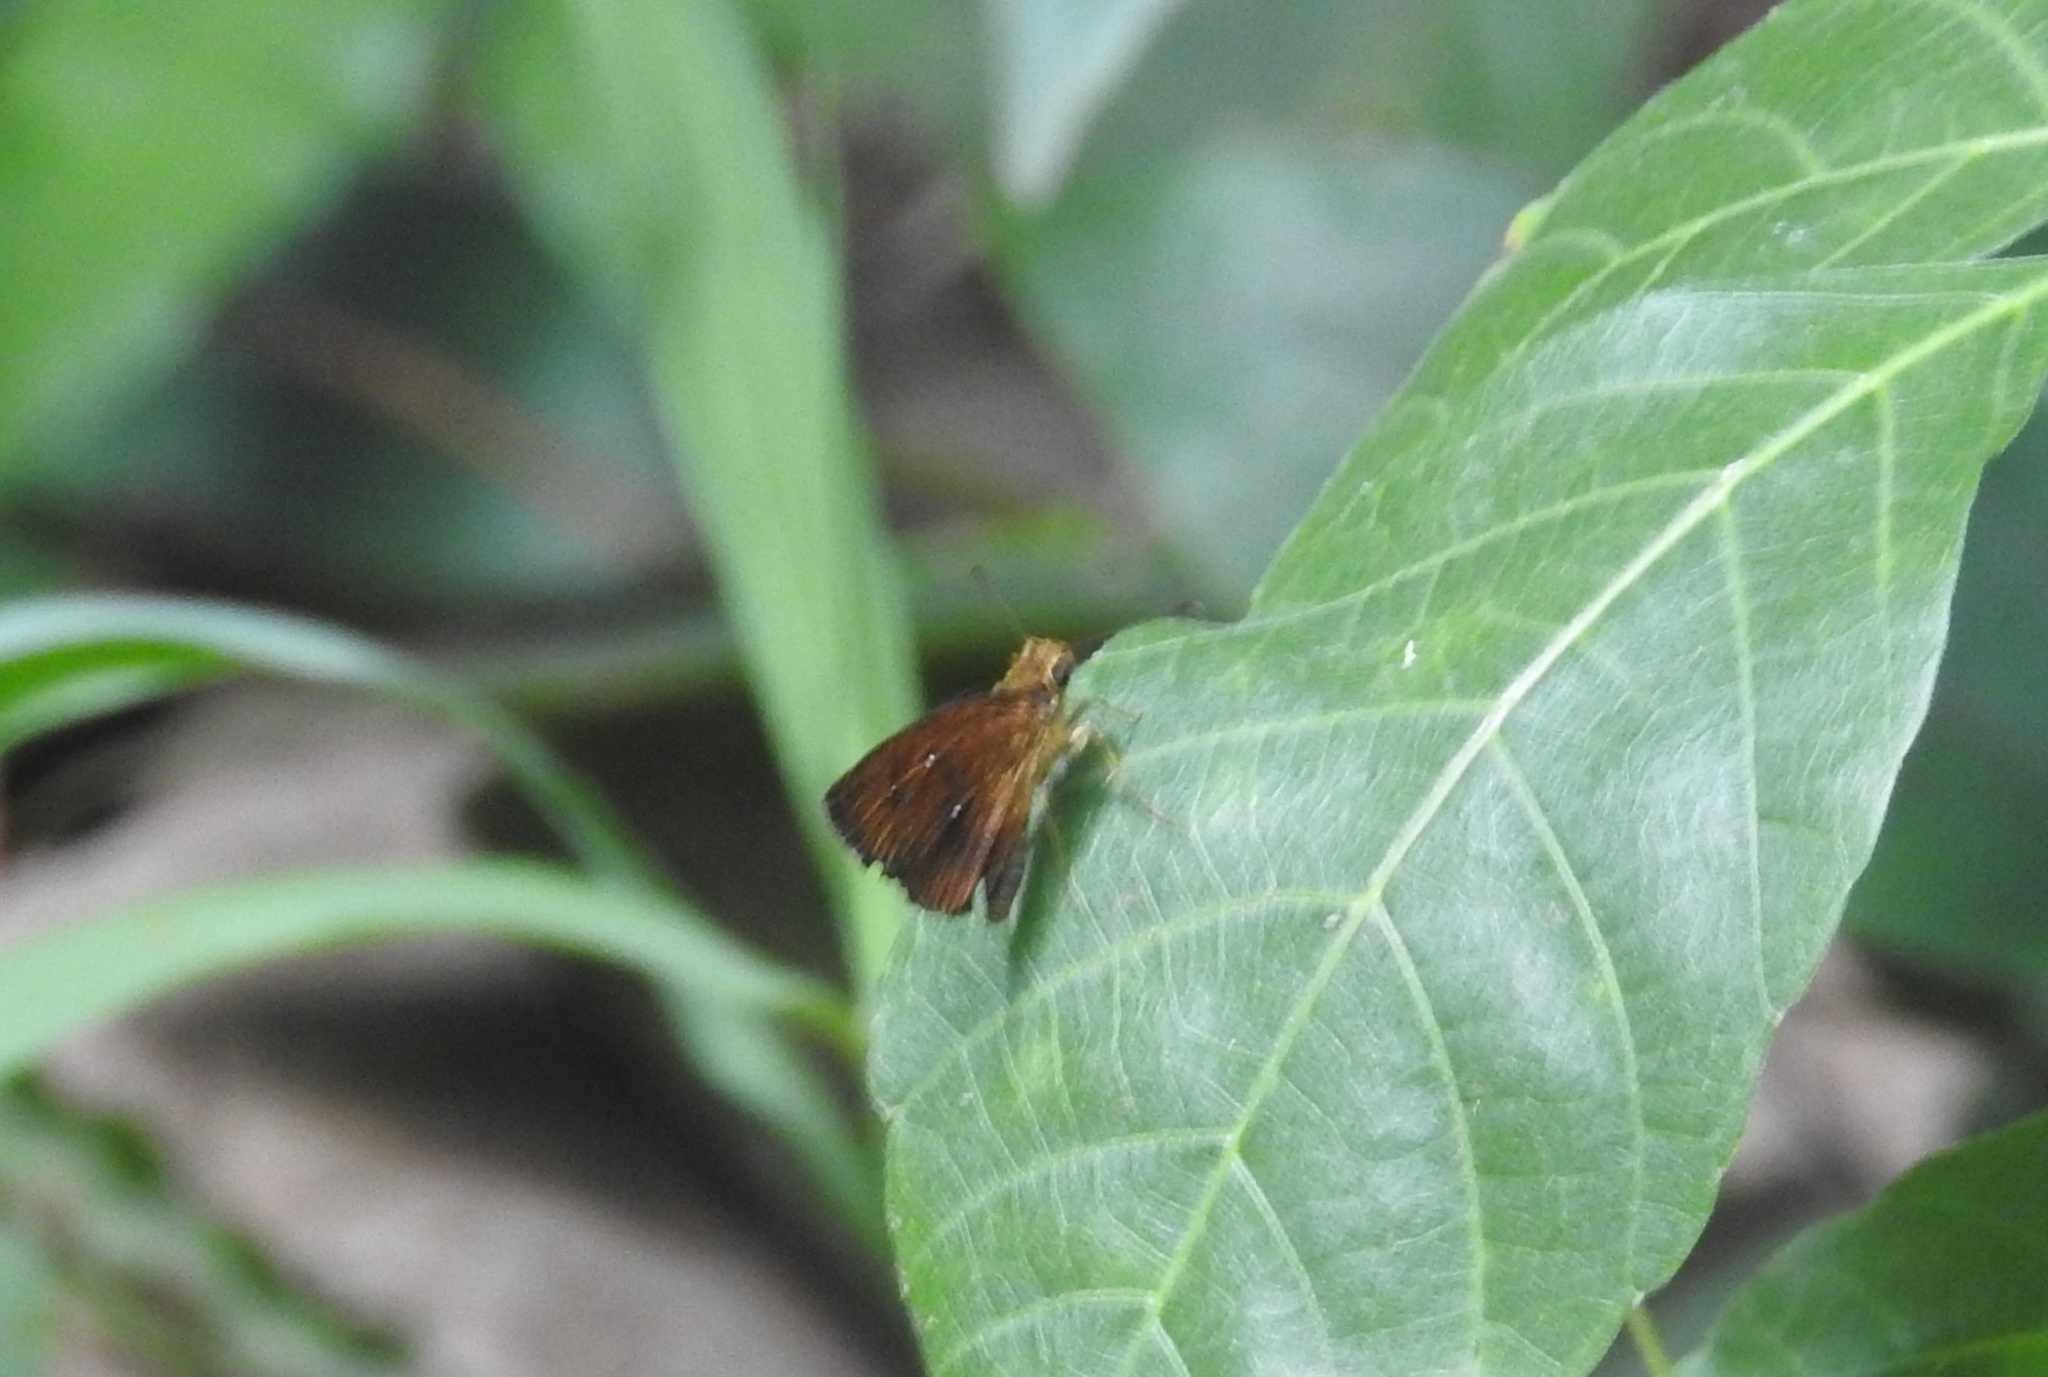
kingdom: Animalia
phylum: Arthropoda
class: Insecta
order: Lepidoptera
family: Hesperiidae
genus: Iambrix
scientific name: Iambrix salsala
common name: Chestnut bob
